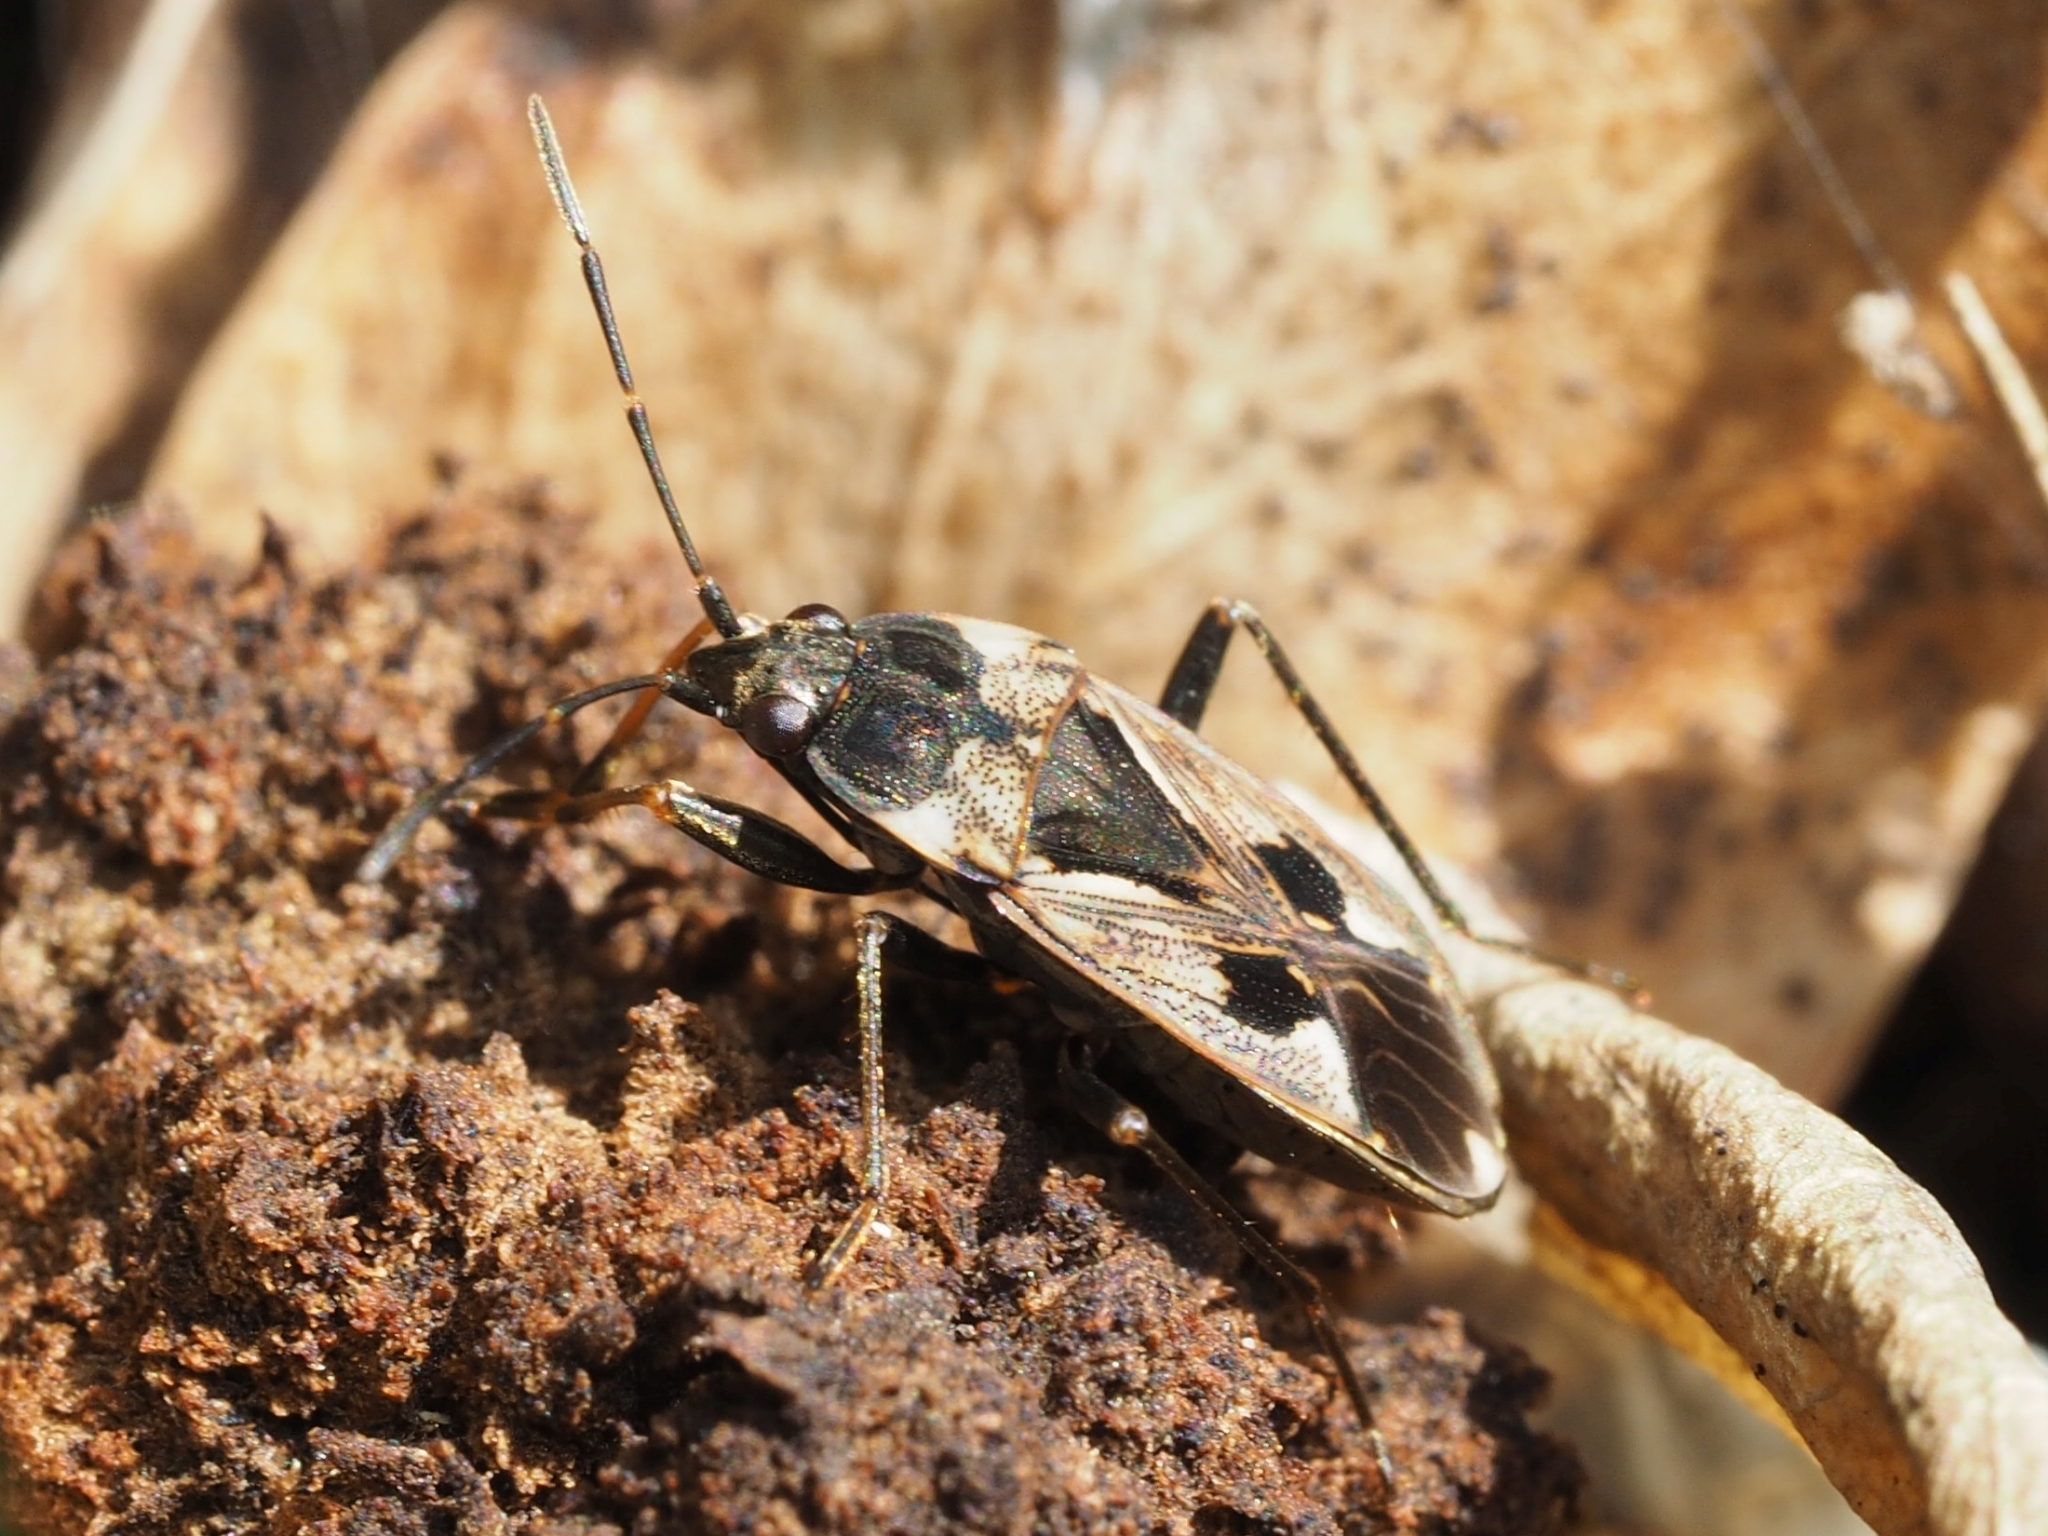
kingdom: Animalia
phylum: Arthropoda
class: Insecta
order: Hemiptera
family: Rhyparochromidae
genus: Rhyparochromus
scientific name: Rhyparochromus vulgaris
